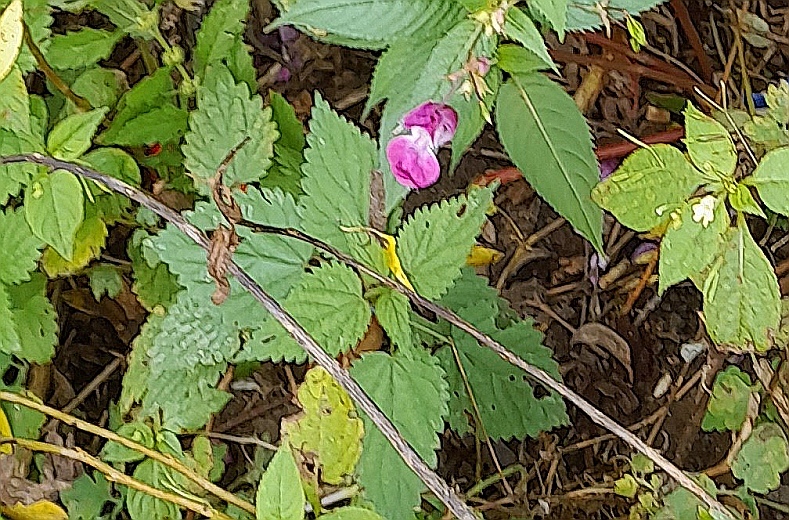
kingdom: Plantae
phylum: Tracheophyta
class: Magnoliopsida
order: Rosales
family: Urticaceae
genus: Urtica
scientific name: Urtica dioica
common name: Common nettle
